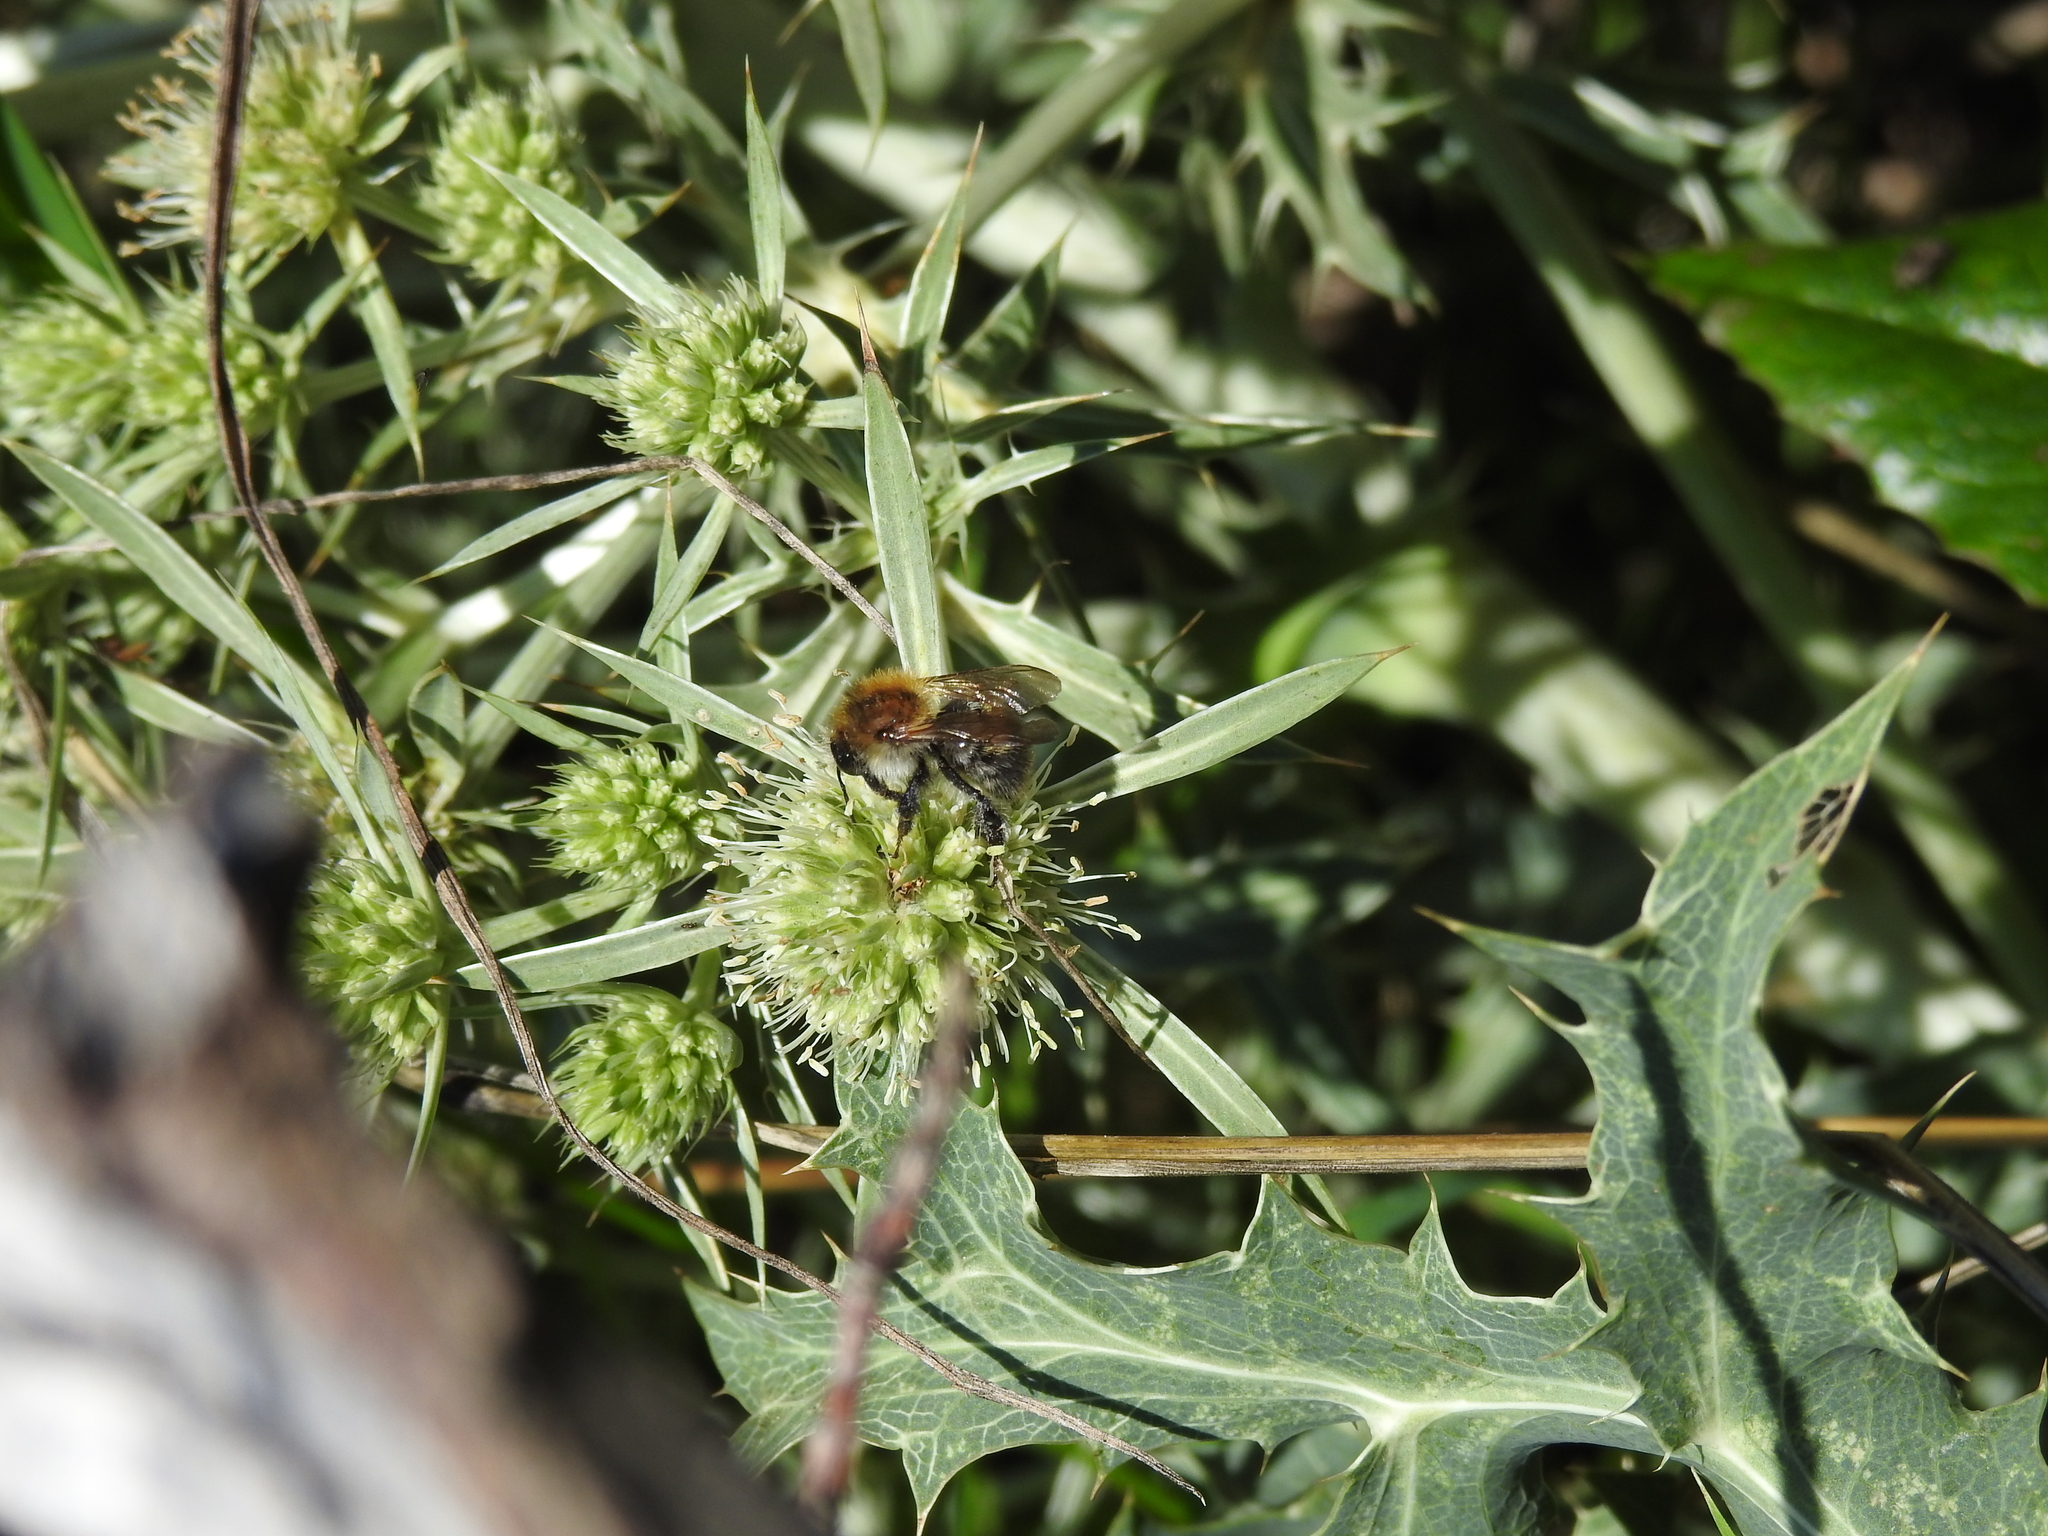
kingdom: Animalia
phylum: Arthropoda
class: Insecta
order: Hymenoptera
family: Apidae
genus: Bombus
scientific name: Bombus pascuorum
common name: Common carder bee
